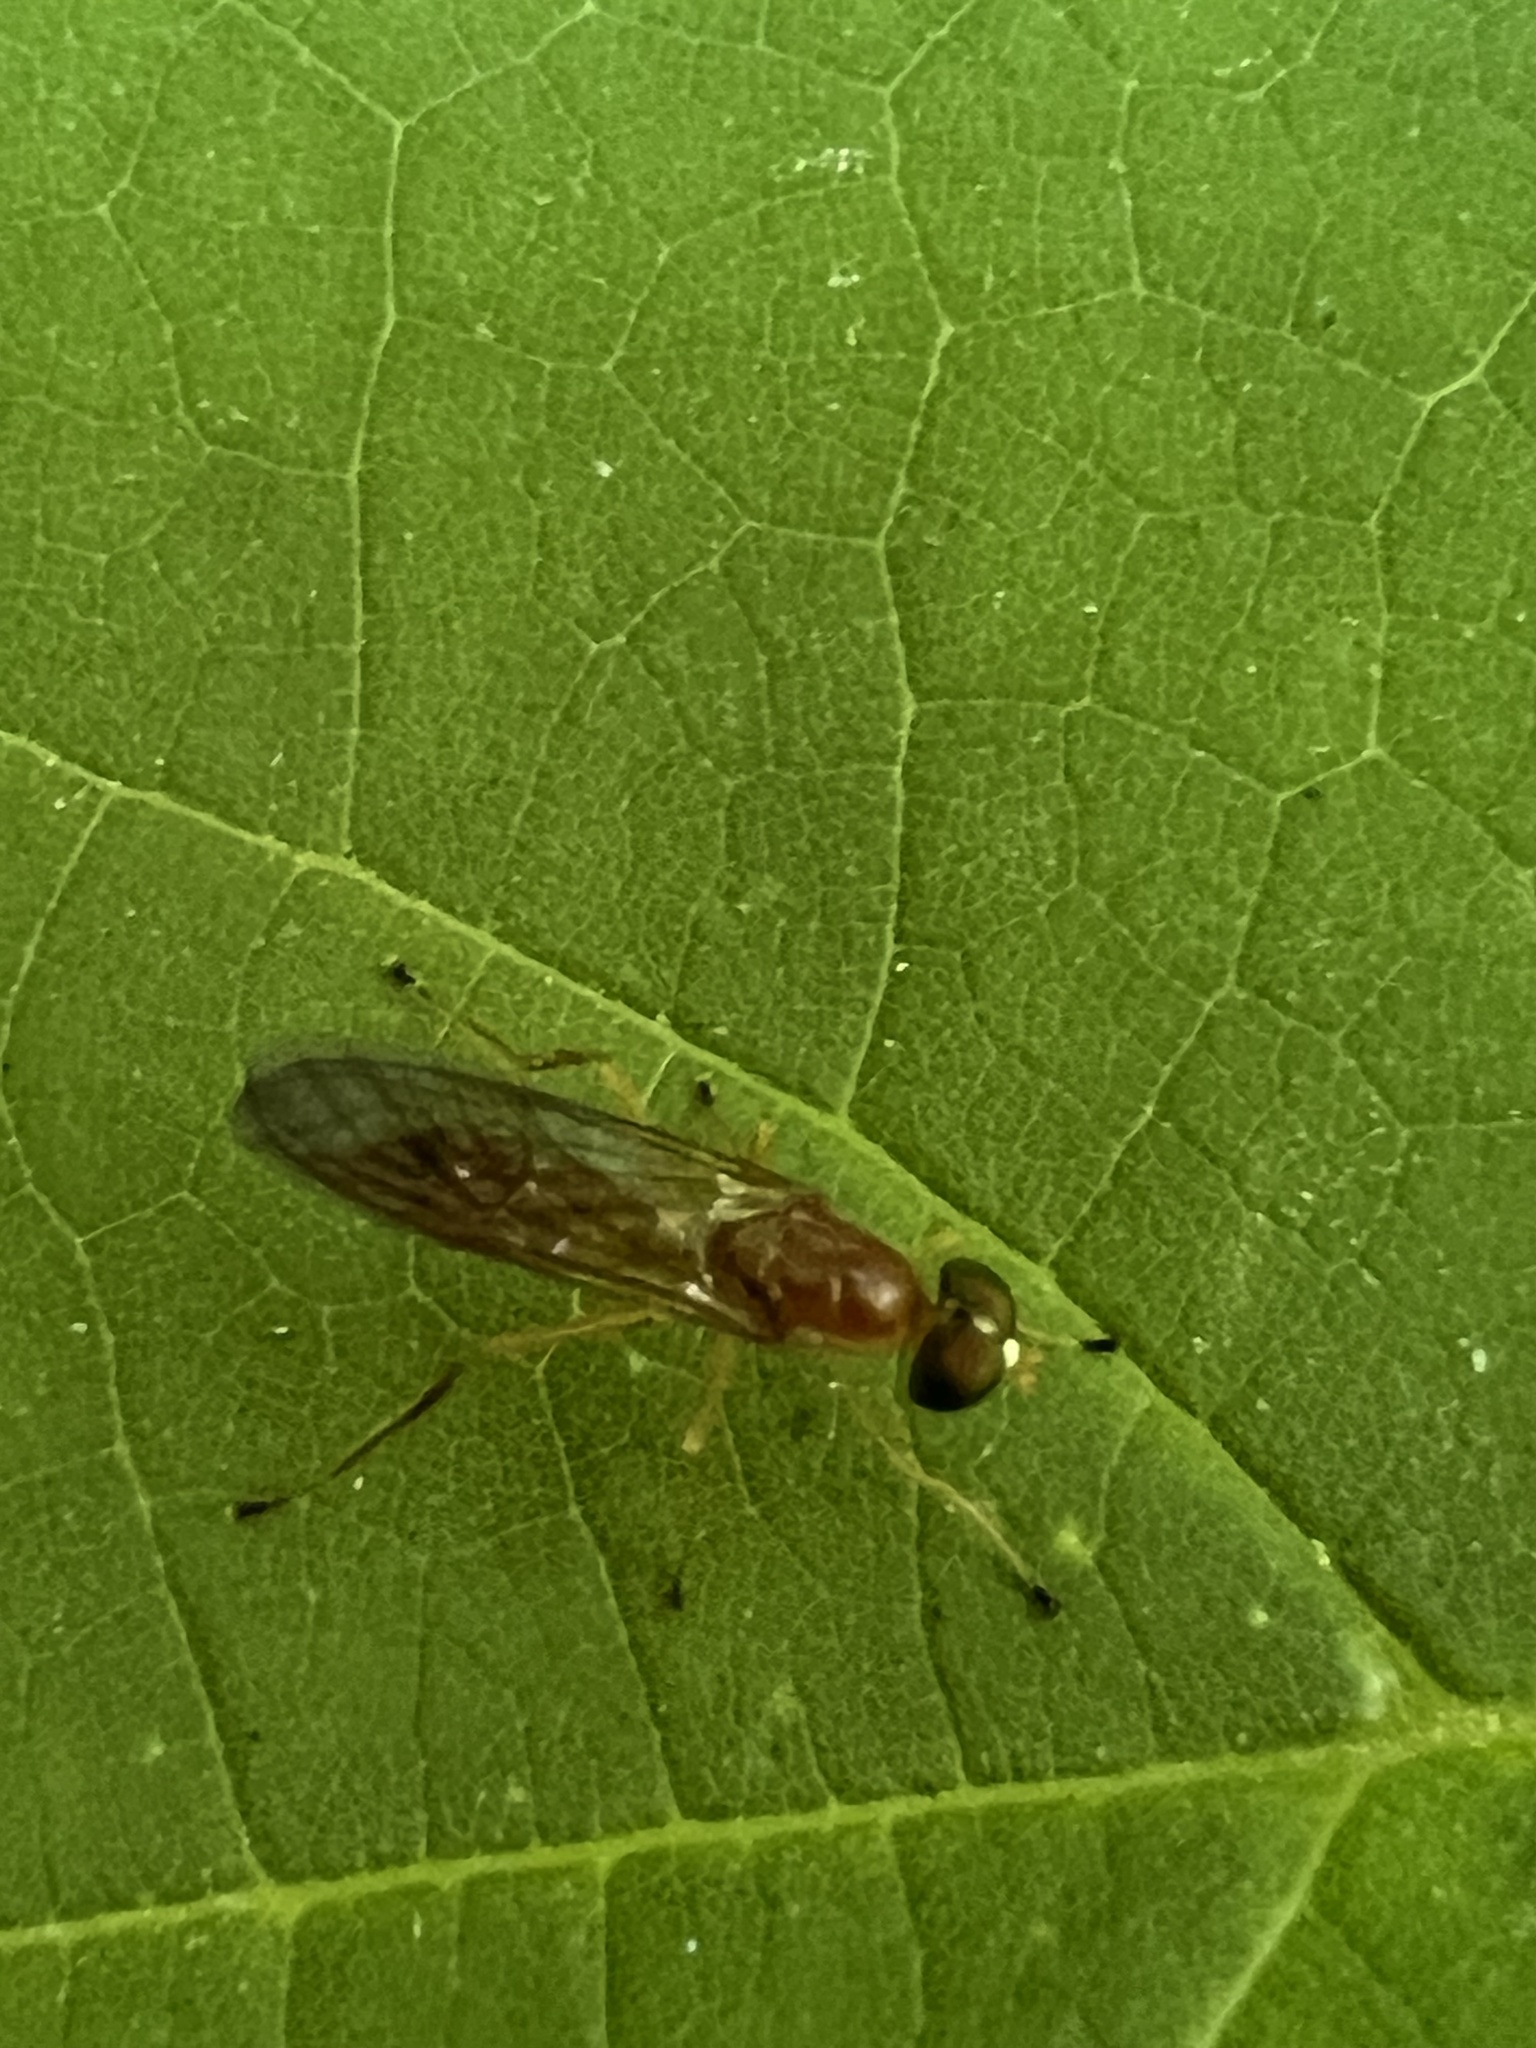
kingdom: Animalia
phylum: Arthropoda
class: Insecta
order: Diptera
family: Stratiomyidae
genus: Ptecticus
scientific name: Ptecticus trivittatus
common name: Compost fly
